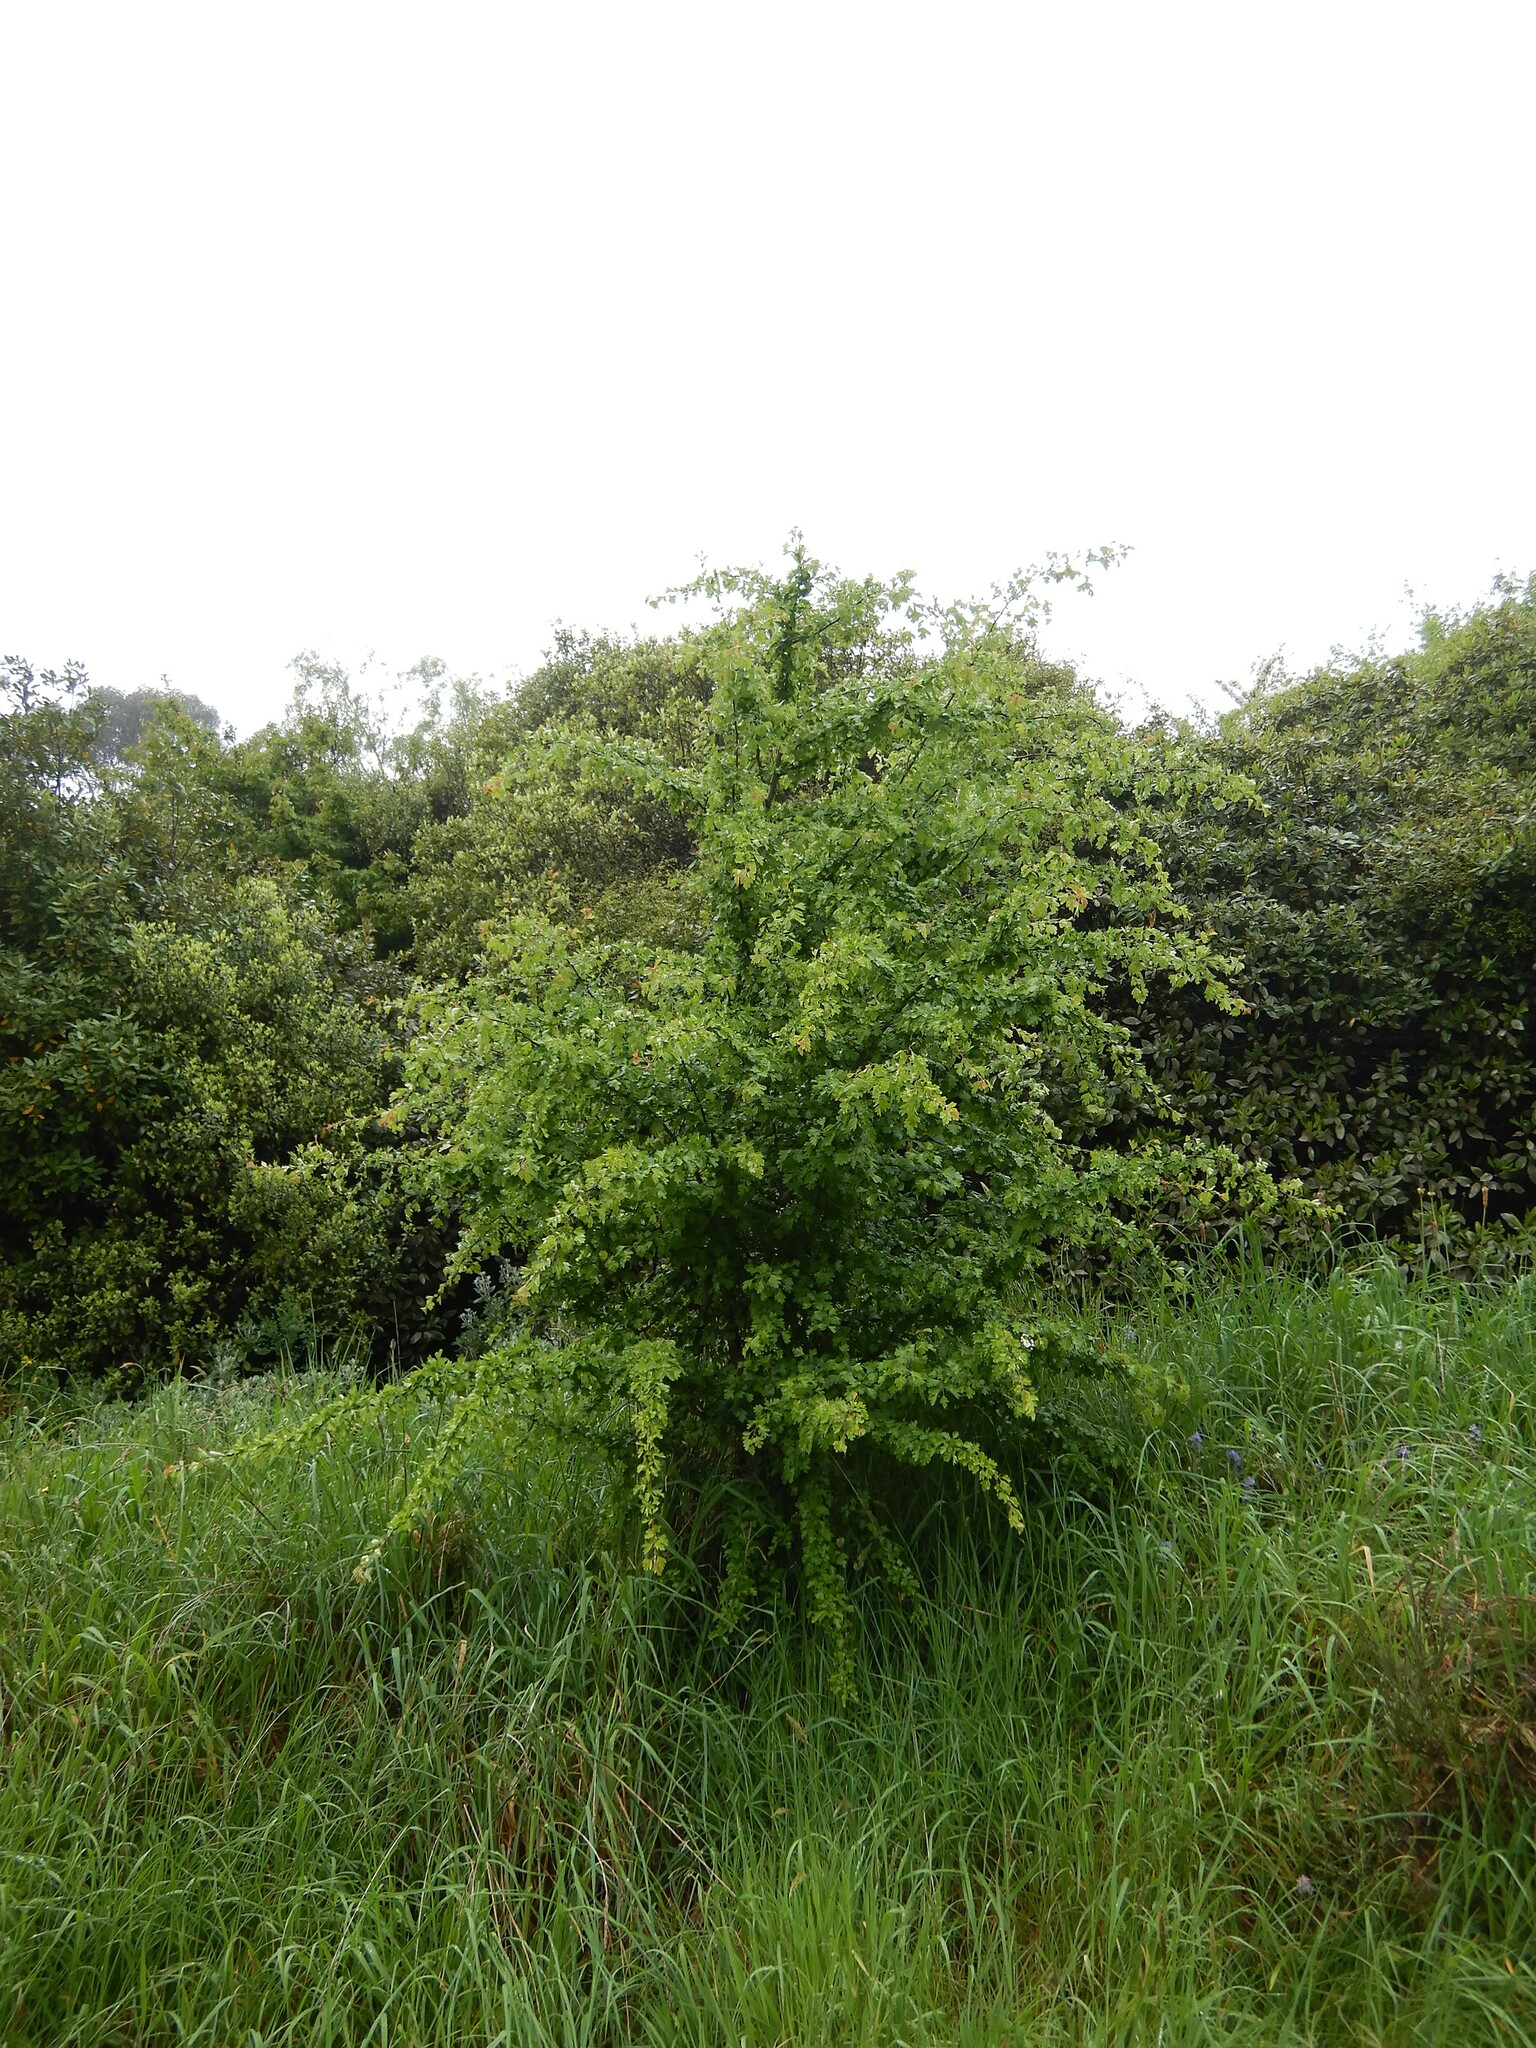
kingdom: Plantae
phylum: Tracheophyta
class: Magnoliopsida
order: Rosales
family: Rosaceae
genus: Crataegus
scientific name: Crataegus monogyna
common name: Hawthorn
